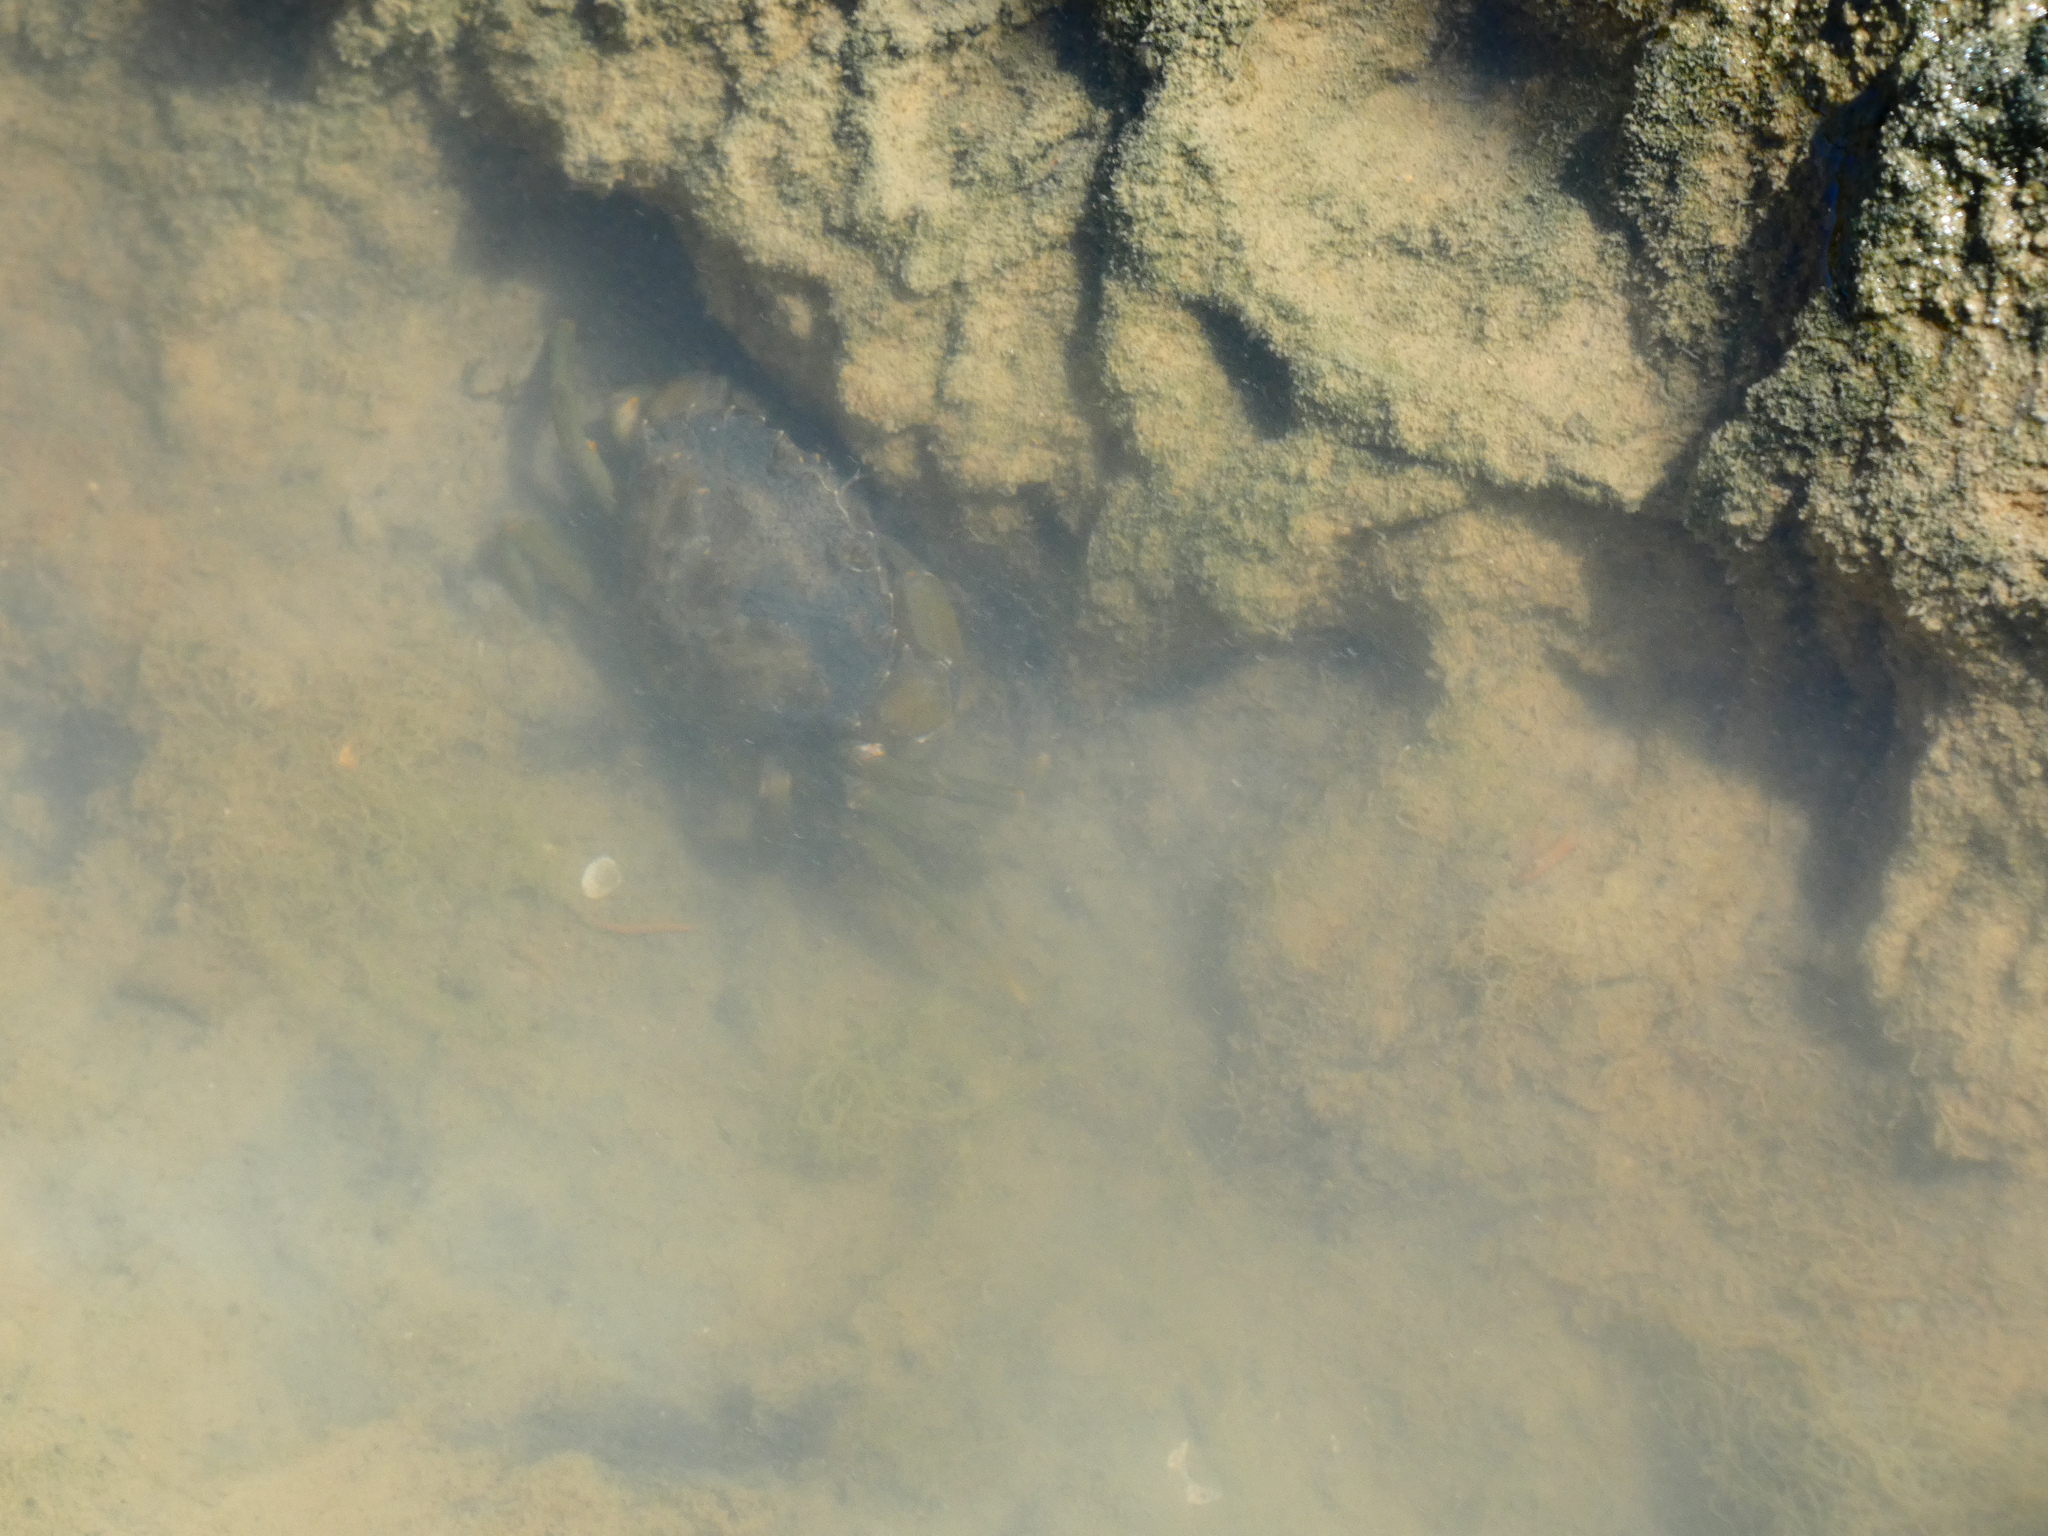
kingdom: Animalia
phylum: Arthropoda
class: Malacostraca
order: Decapoda
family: Carcinidae
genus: Carcinus
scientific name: Carcinus maenas
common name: European green crab
